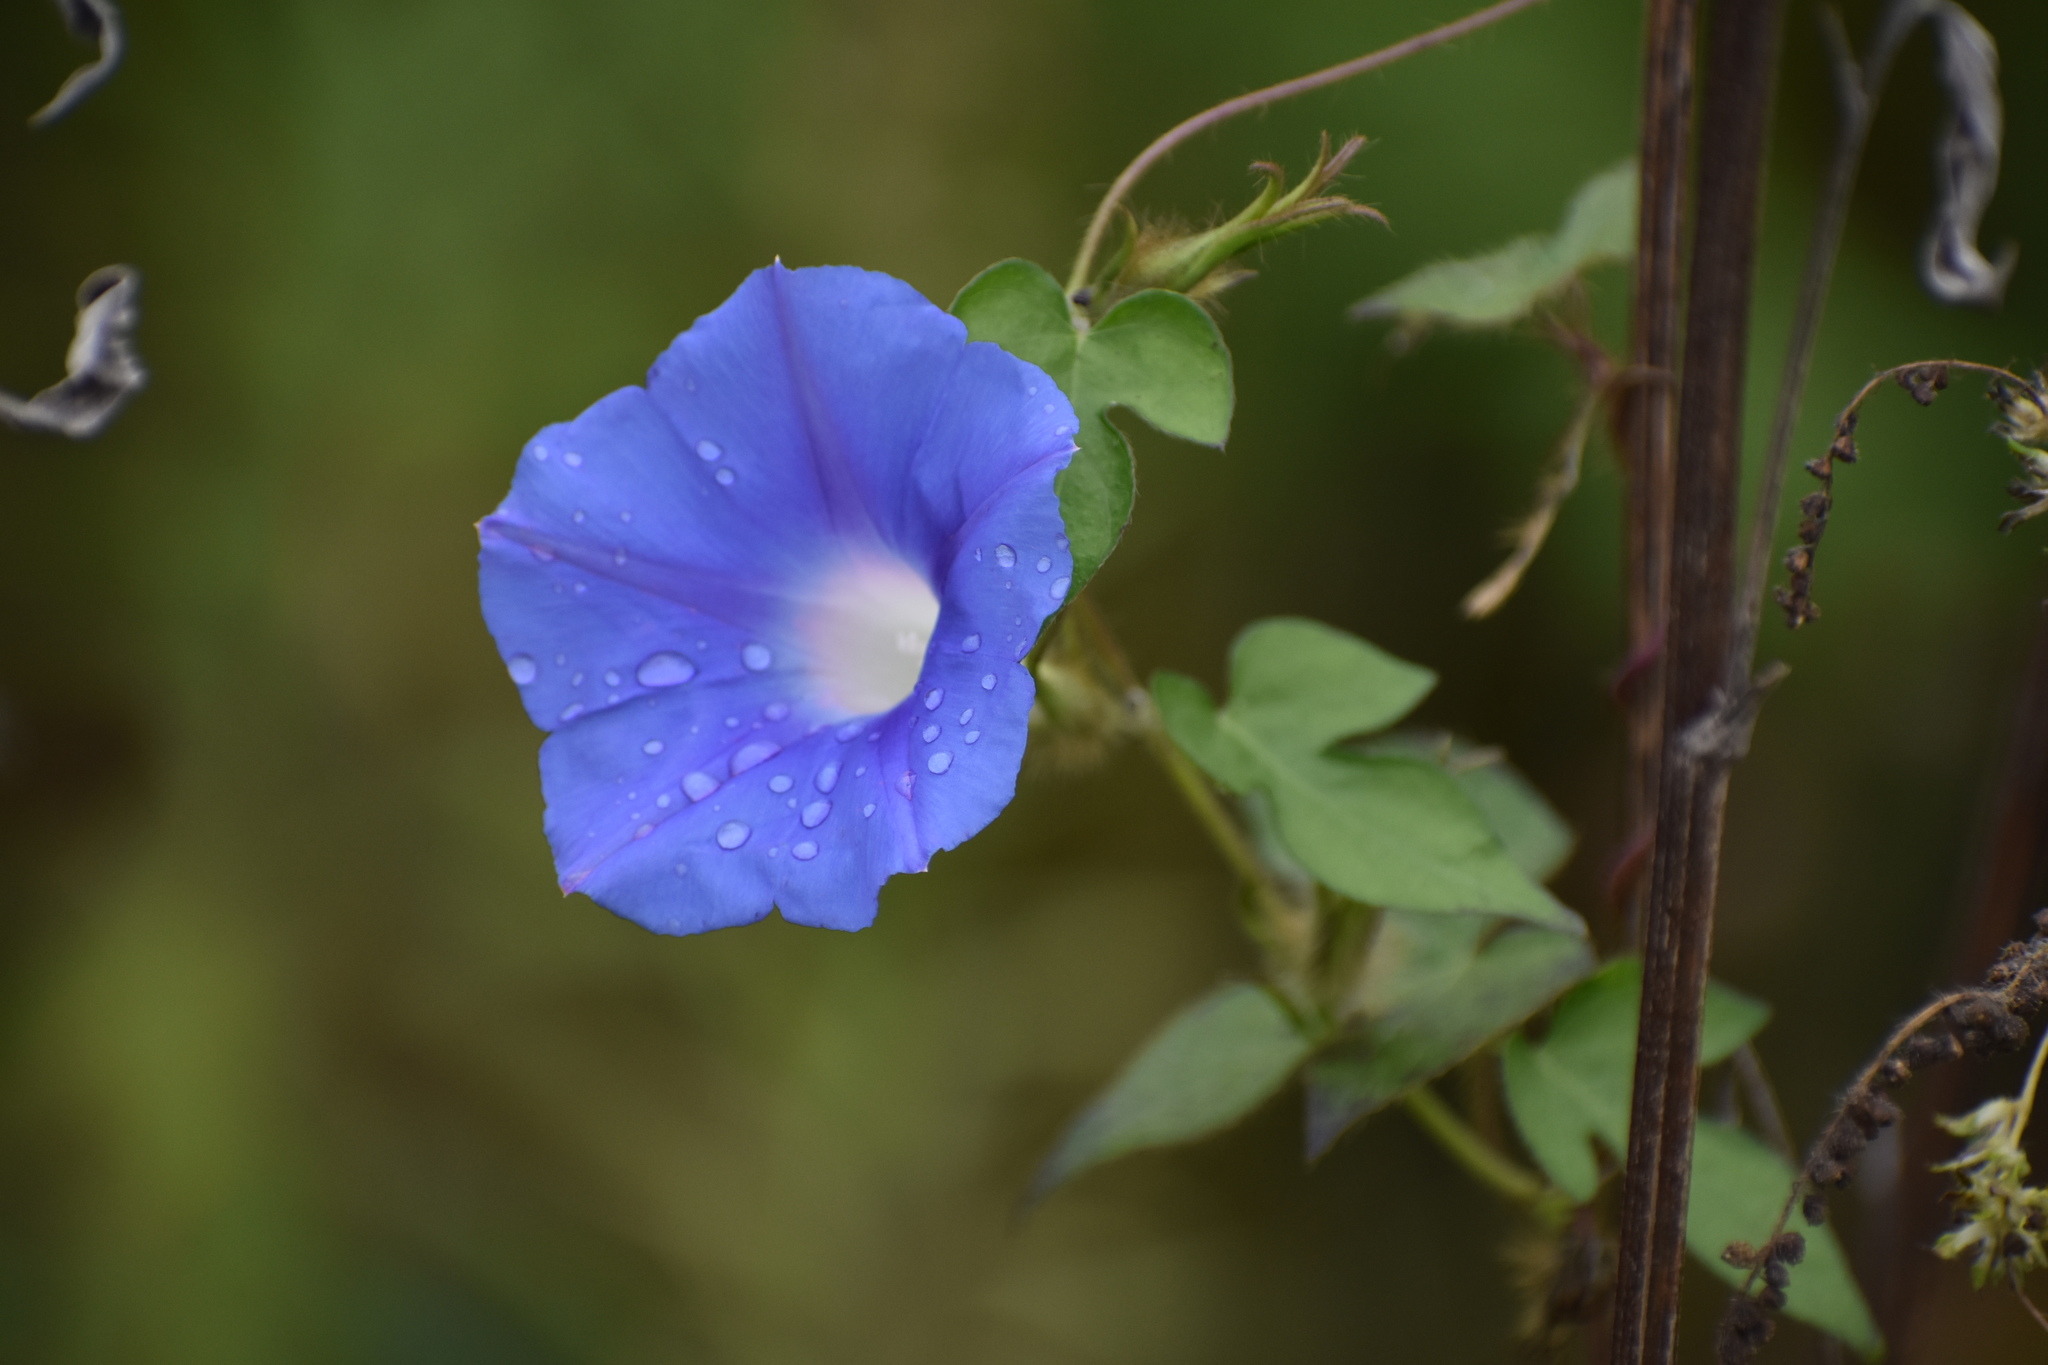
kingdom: Plantae
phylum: Tracheophyta
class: Magnoliopsida
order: Solanales
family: Convolvulaceae
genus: Ipomoea
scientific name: Ipomoea hederacea
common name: Ivy-leaved morning-glory
